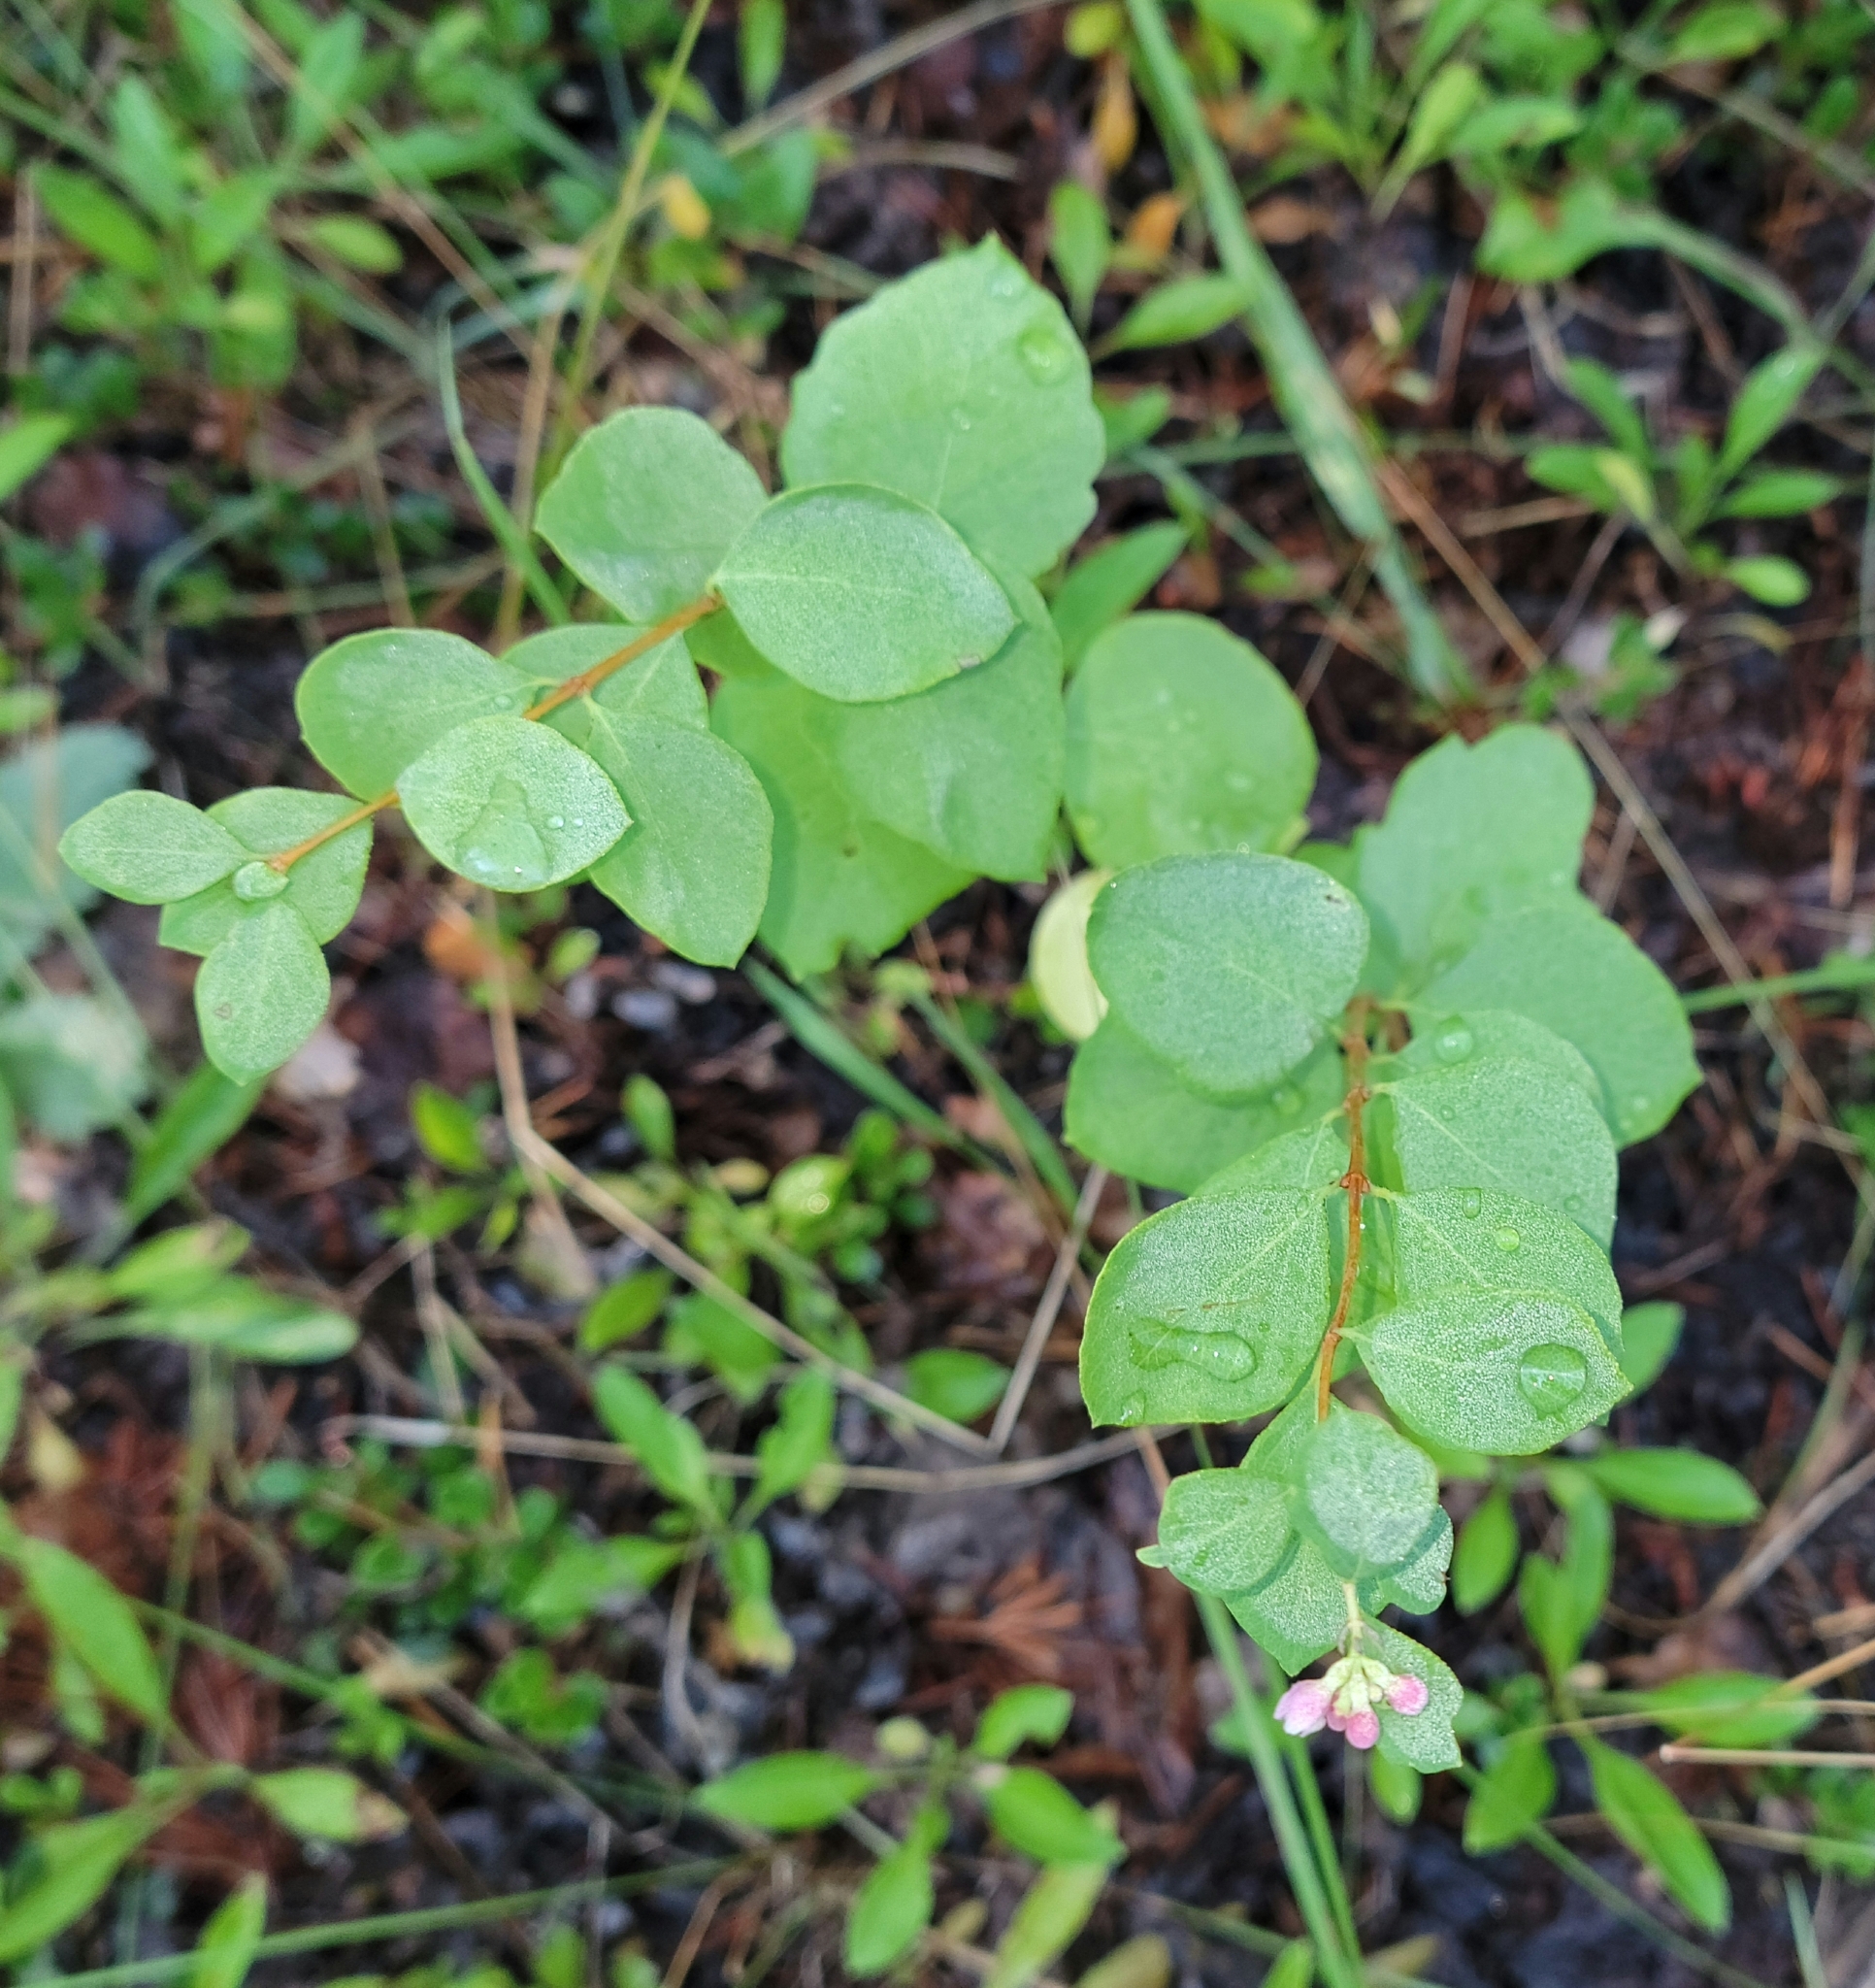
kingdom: Plantae
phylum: Tracheophyta
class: Magnoliopsida
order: Dipsacales
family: Caprifoliaceae
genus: Symphoricarpos
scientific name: Symphoricarpos albus
